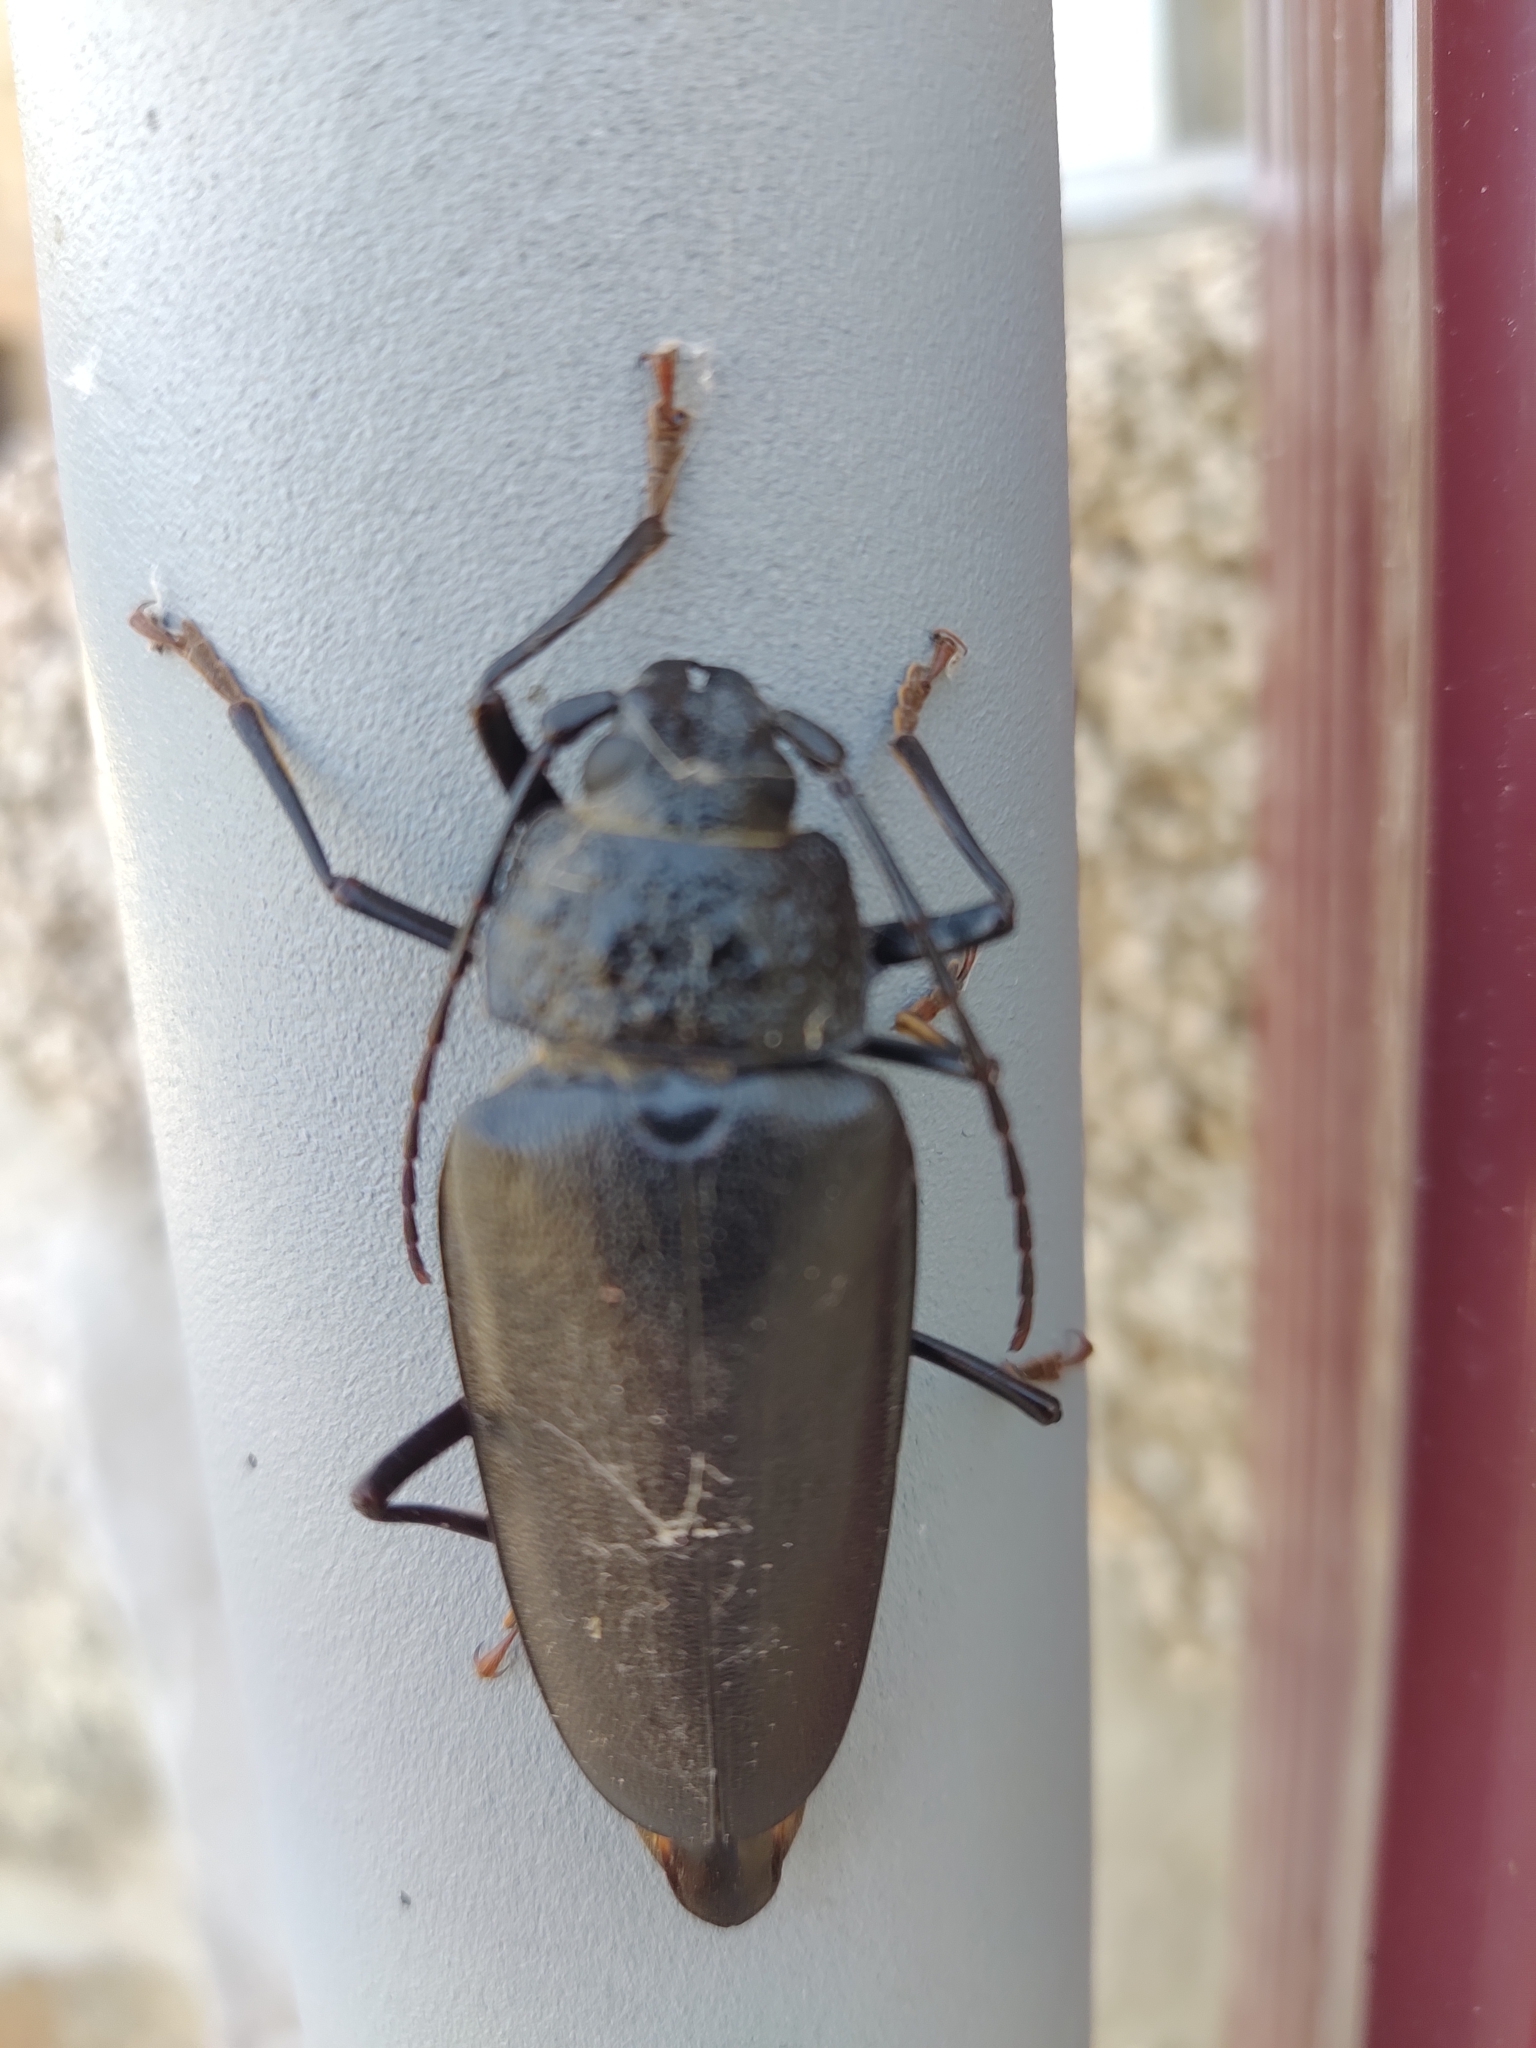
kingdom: Animalia
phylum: Arthropoda
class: Insecta
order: Coleoptera
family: Cerambycidae
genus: Ergates
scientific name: Ergates faber
